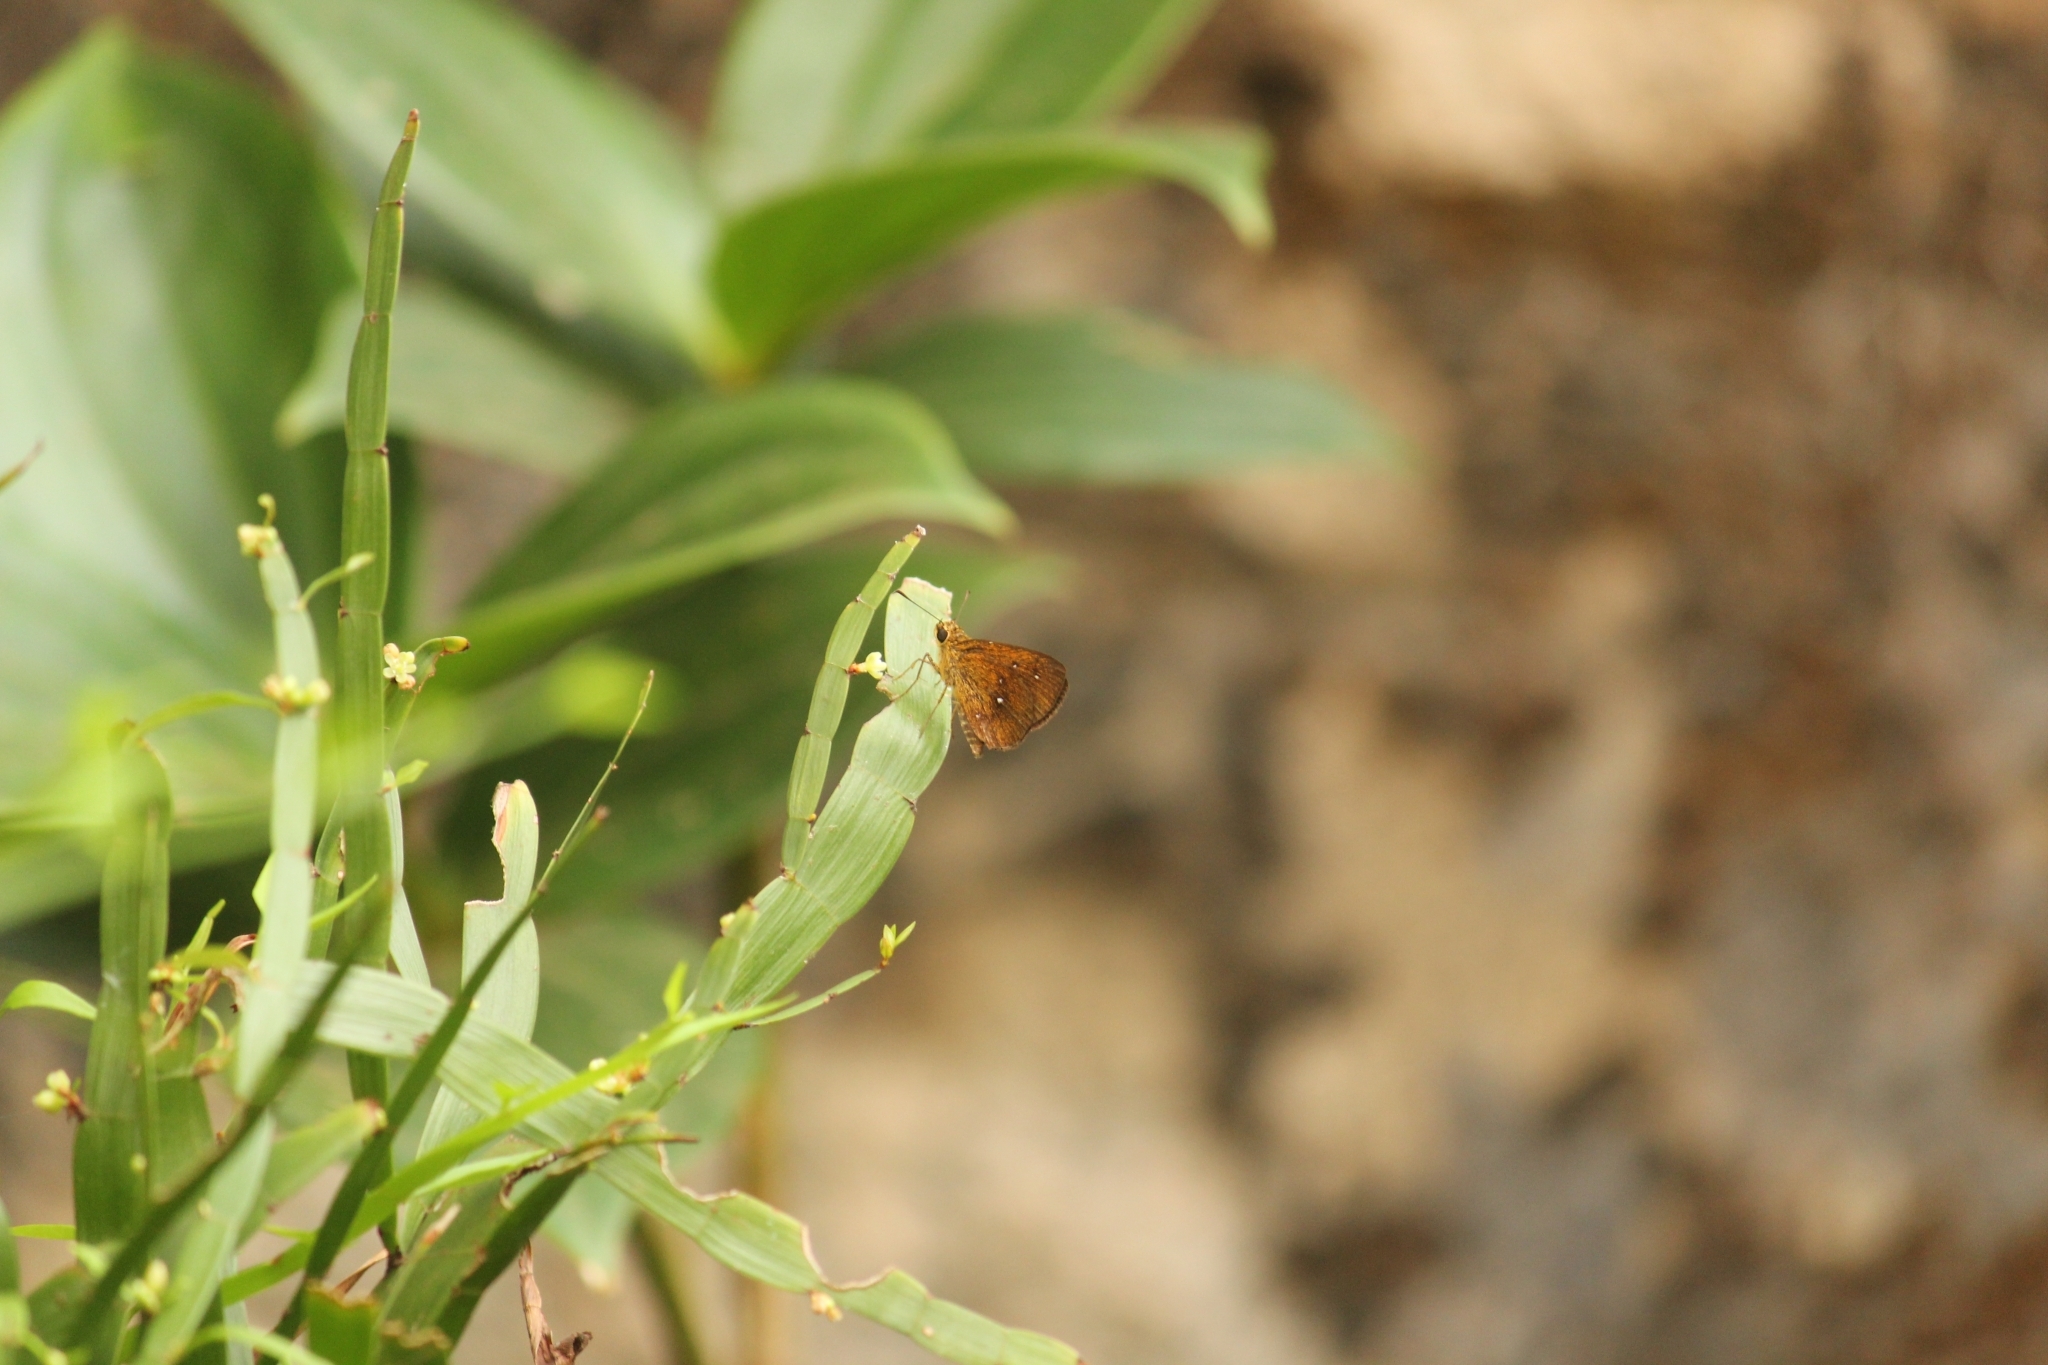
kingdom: Animalia
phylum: Arthropoda
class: Insecta
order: Lepidoptera
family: Hesperiidae
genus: Iambrix
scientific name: Iambrix salsala
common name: Chestnut bob
